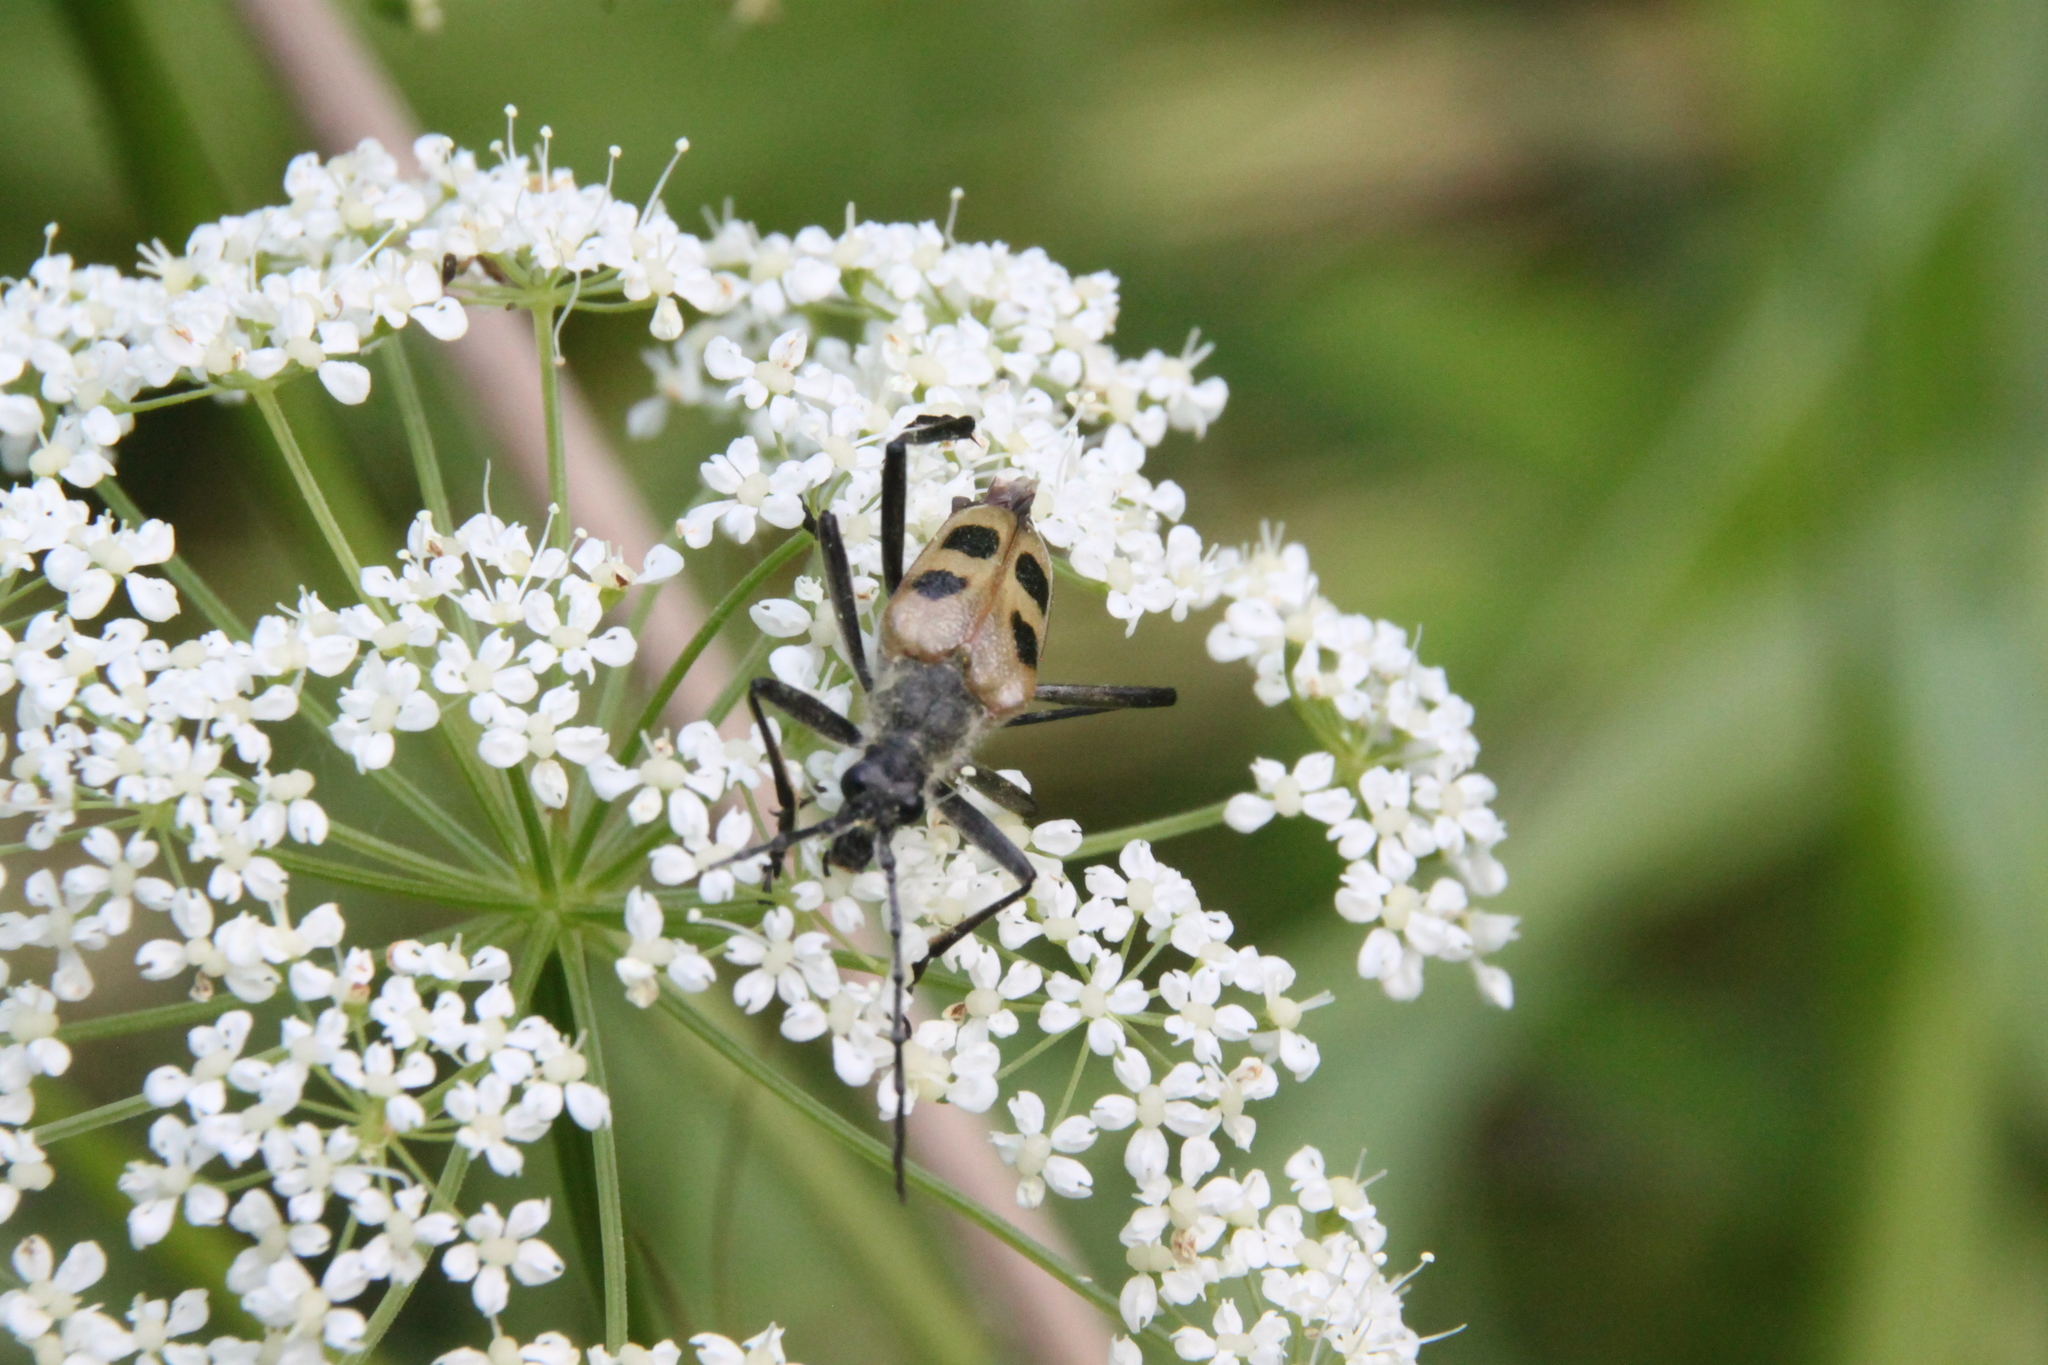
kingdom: Animalia
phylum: Arthropoda
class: Insecta
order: Coleoptera
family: Cerambycidae
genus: Pachyta
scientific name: Pachyta quadrimaculata
